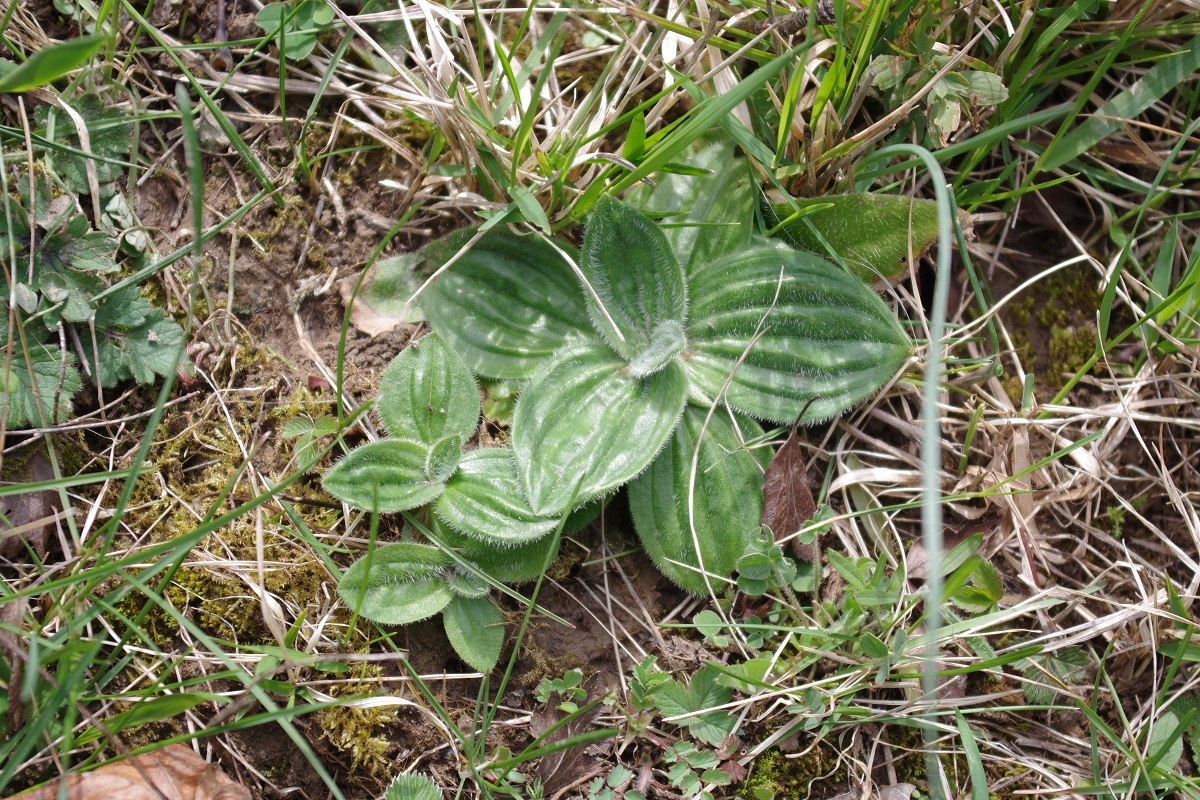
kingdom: Plantae
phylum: Tracheophyta
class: Magnoliopsida
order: Lamiales
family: Plantaginaceae
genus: Plantago
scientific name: Plantago media
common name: Hoary plantain
